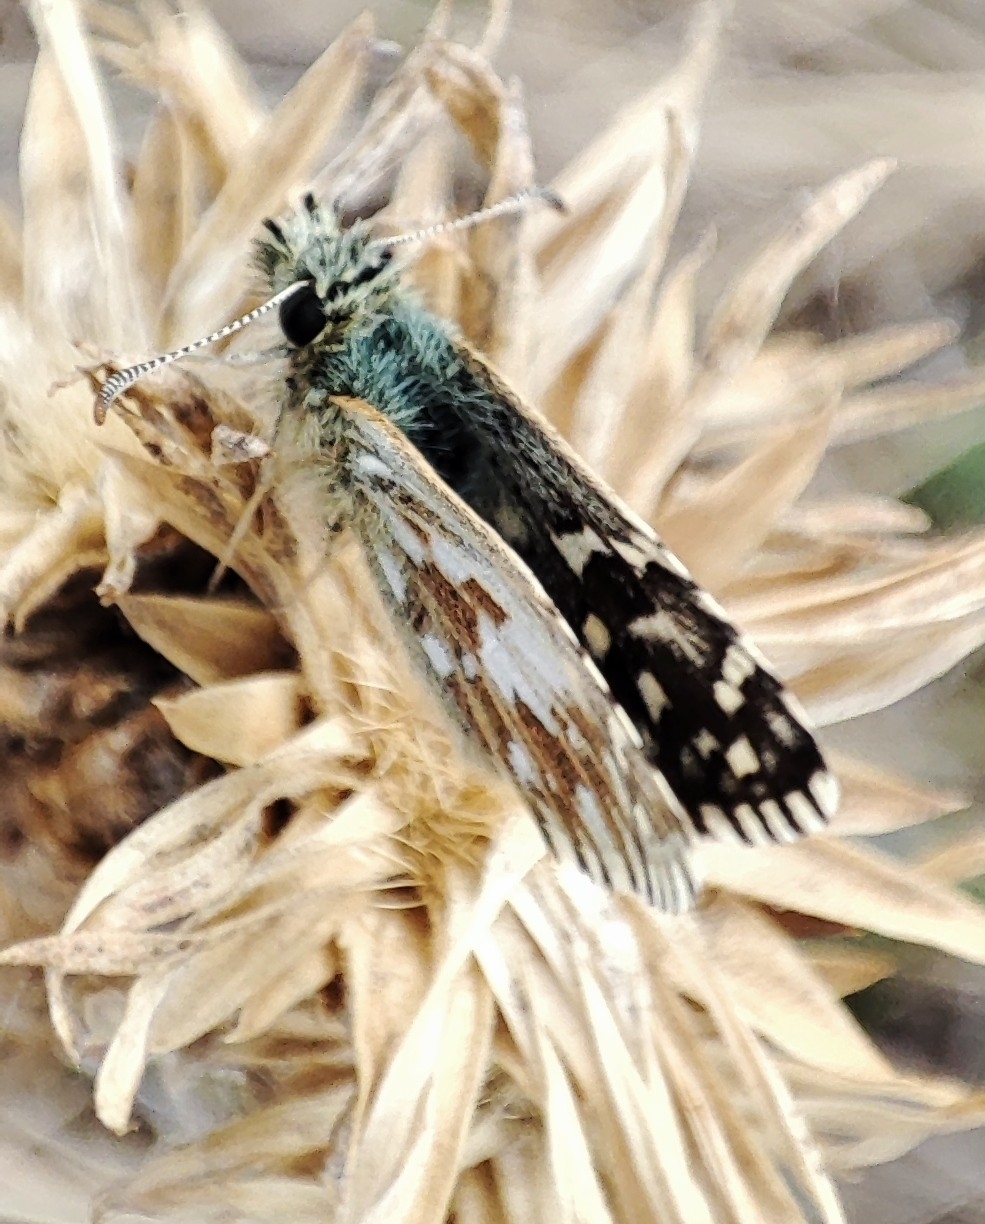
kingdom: Animalia
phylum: Arthropoda
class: Insecta
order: Lepidoptera
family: Hesperiidae
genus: Pyrgus
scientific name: Pyrgus malvae
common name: Grizzled skipper
